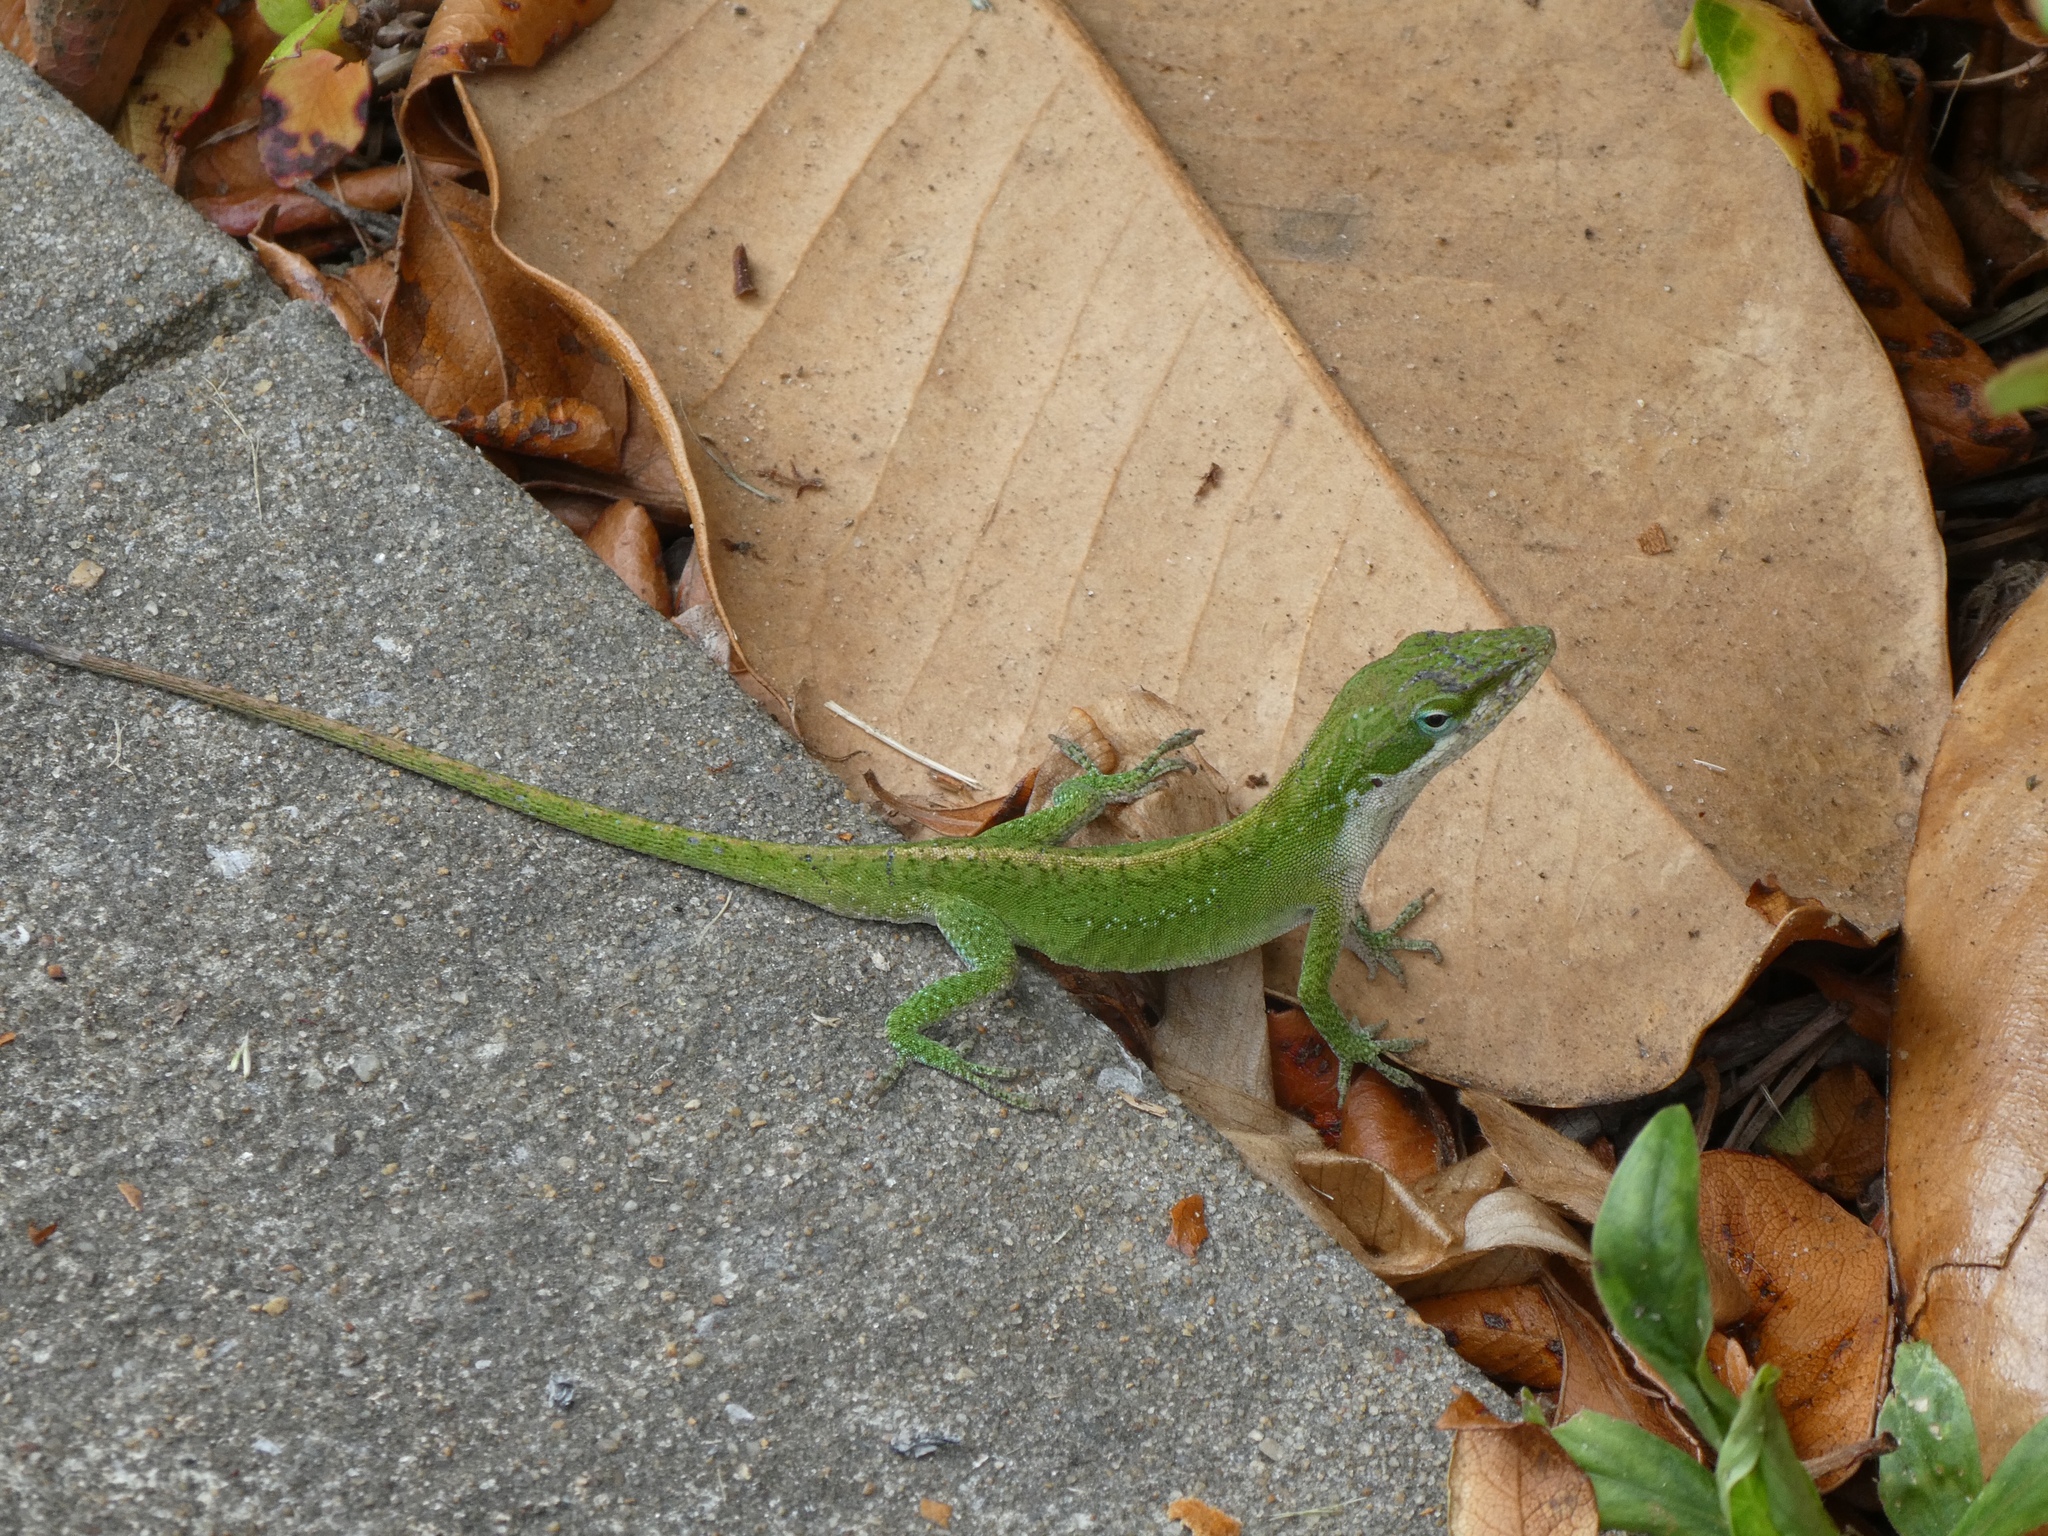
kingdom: Animalia
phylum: Chordata
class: Squamata
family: Dactyloidae
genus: Anolis
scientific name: Anolis carolinensis
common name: Green anole
